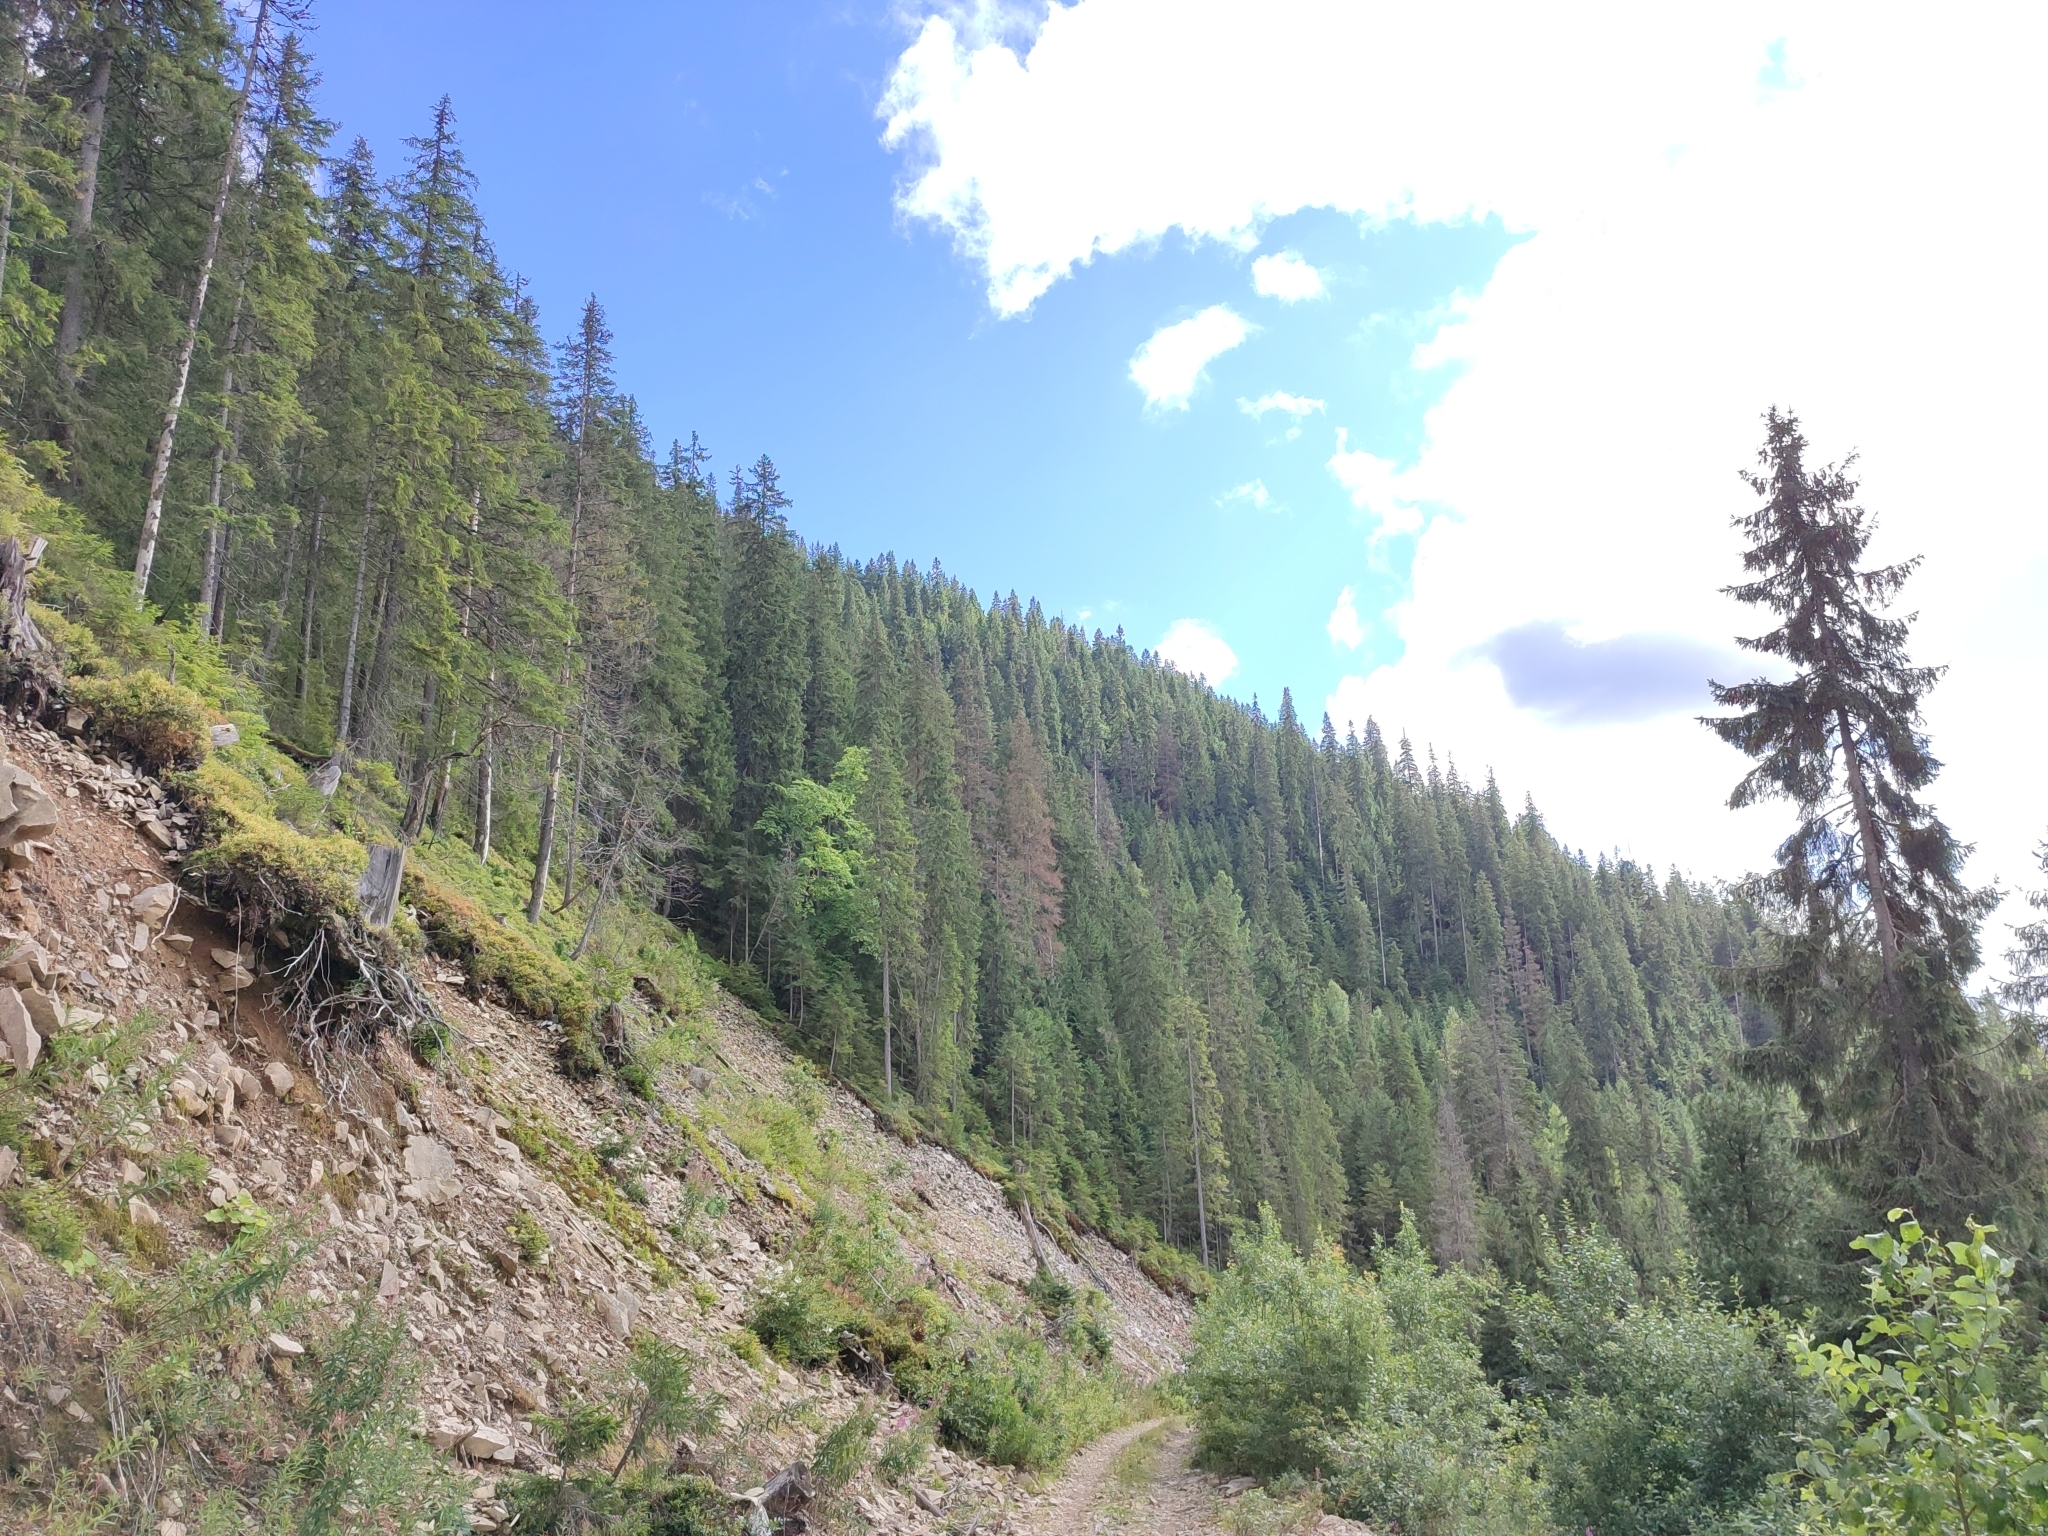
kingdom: Plantae
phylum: Tracheophyta
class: Pinopsida
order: Pinales
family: Pinaceae
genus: Picea
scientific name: Picea abies
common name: Norway spruce
